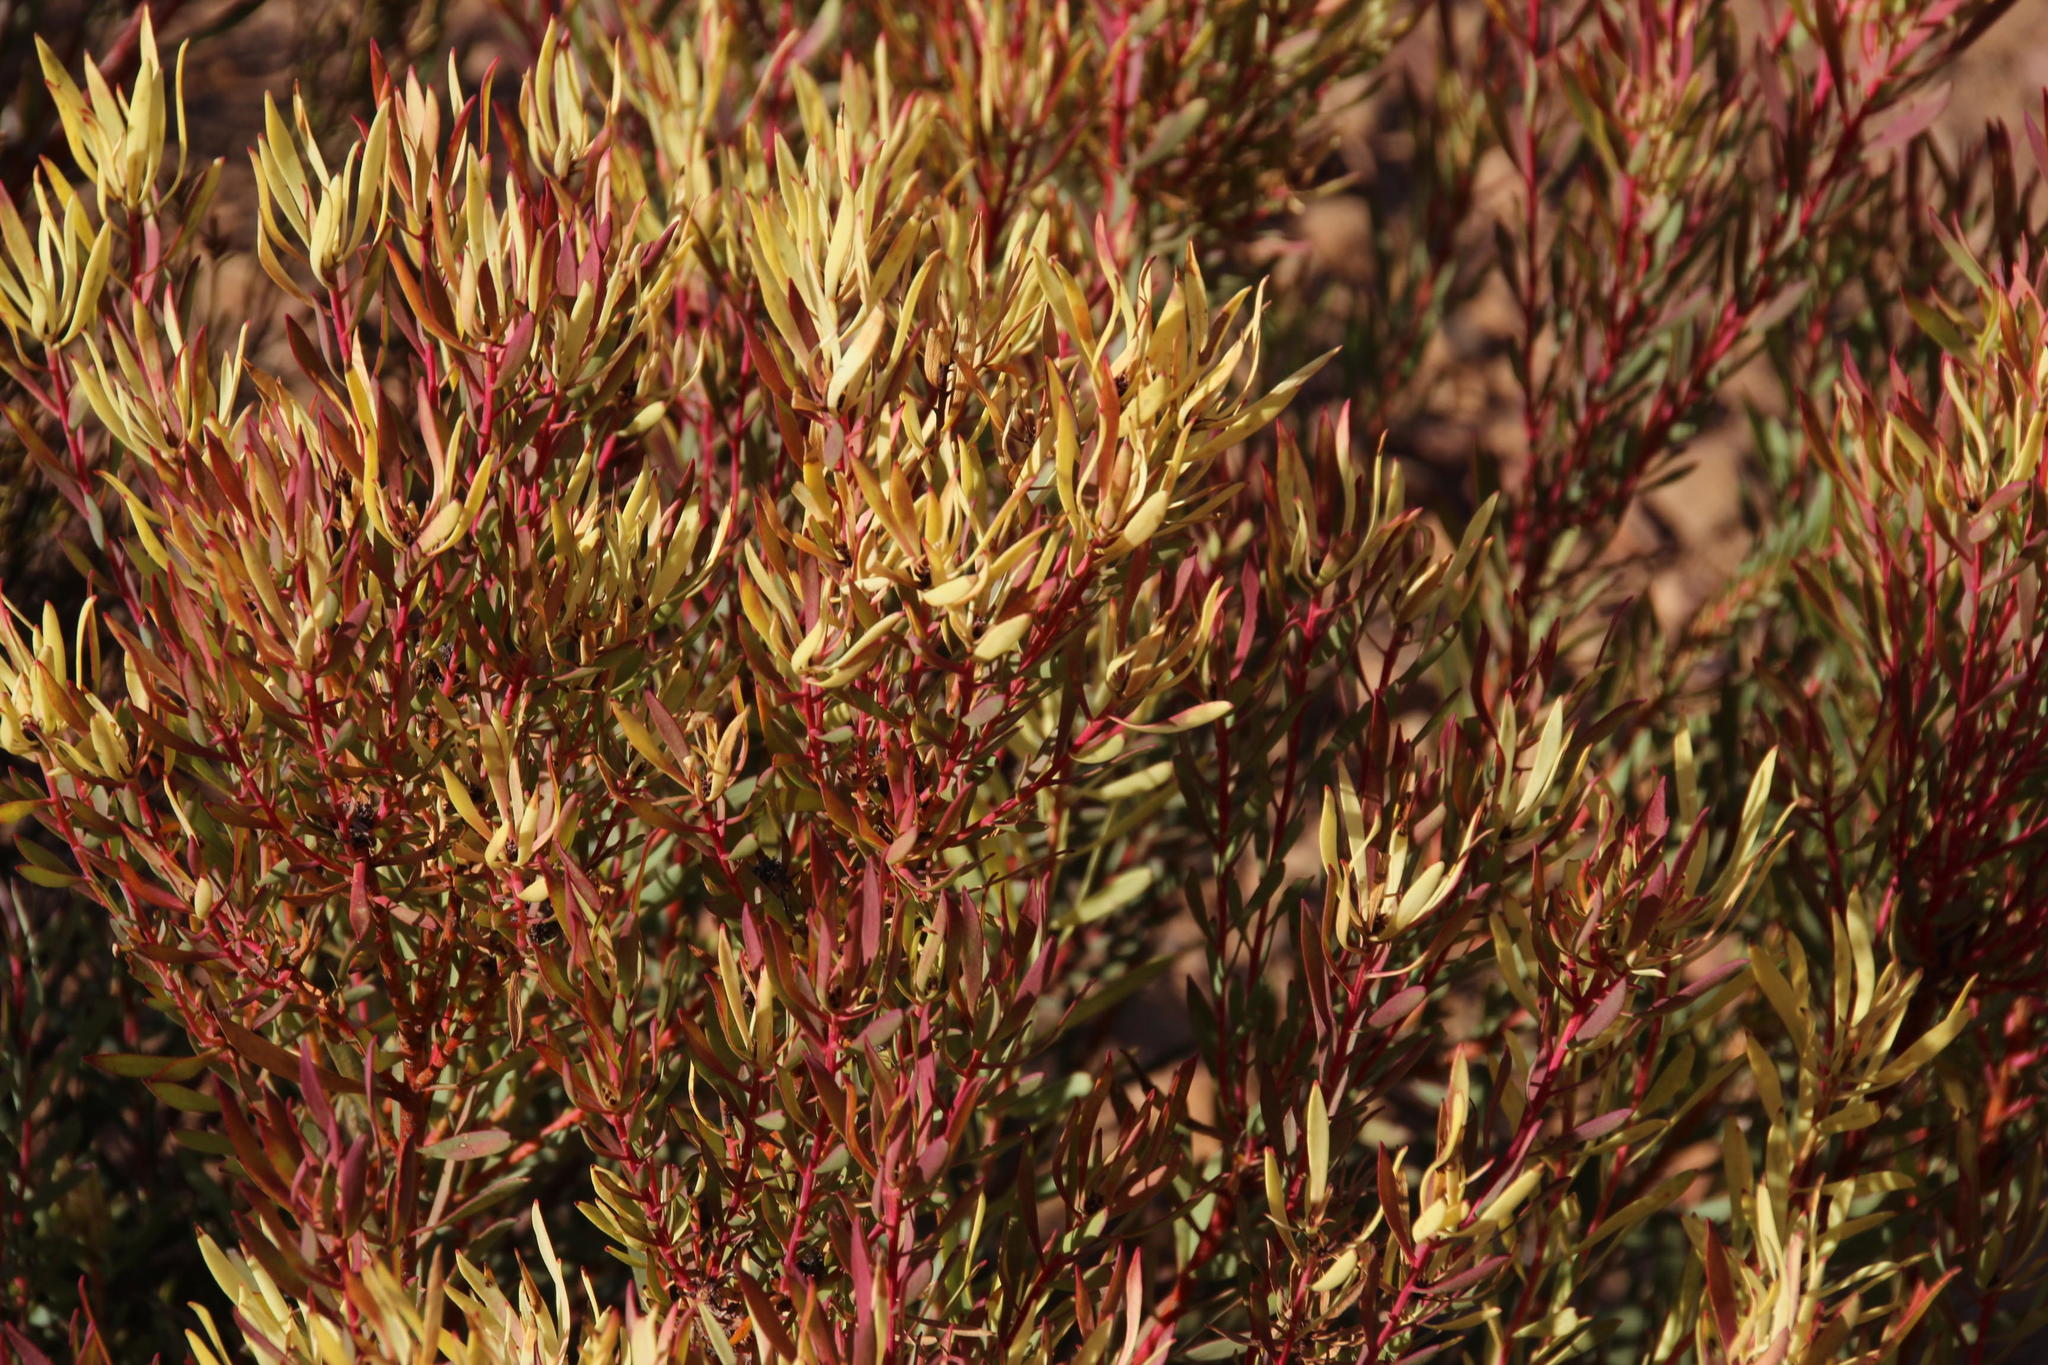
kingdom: Plantae
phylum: Tracheophyta
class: Magnoliopsida
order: Proteales
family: Proteaceae
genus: Leucadendron
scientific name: Leucadendron salignum
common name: Common sunshine conebush
